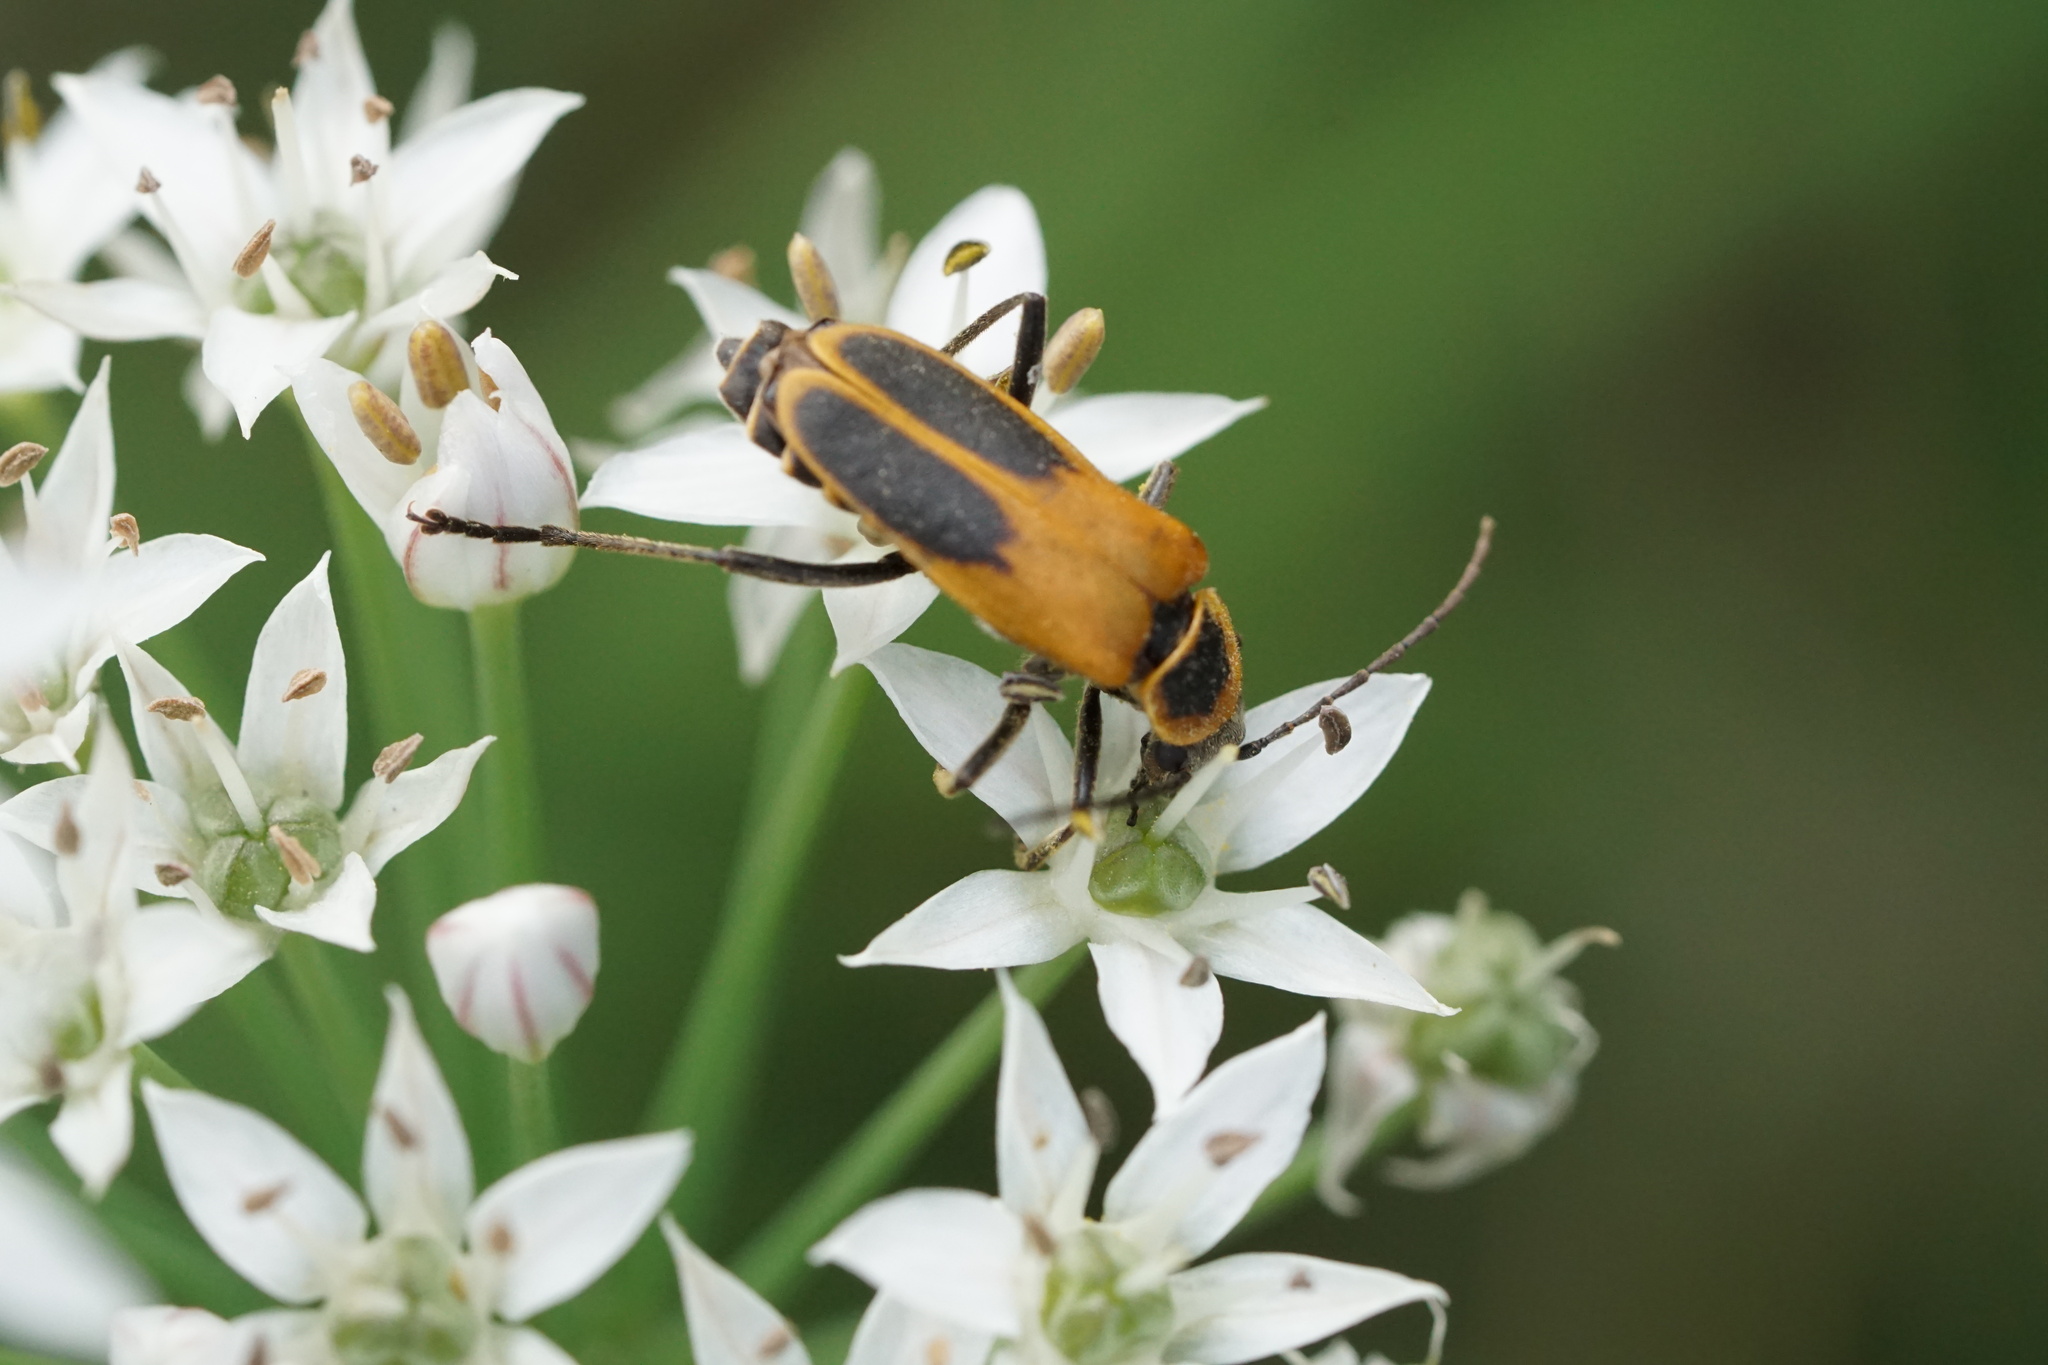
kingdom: Animalia
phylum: Arthropoda
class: Insecta
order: Coleoptera
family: Cantharidae
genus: Chauliognathus
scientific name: Chauliognathus pensylvanicus
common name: Goldenrod soldier beetle
